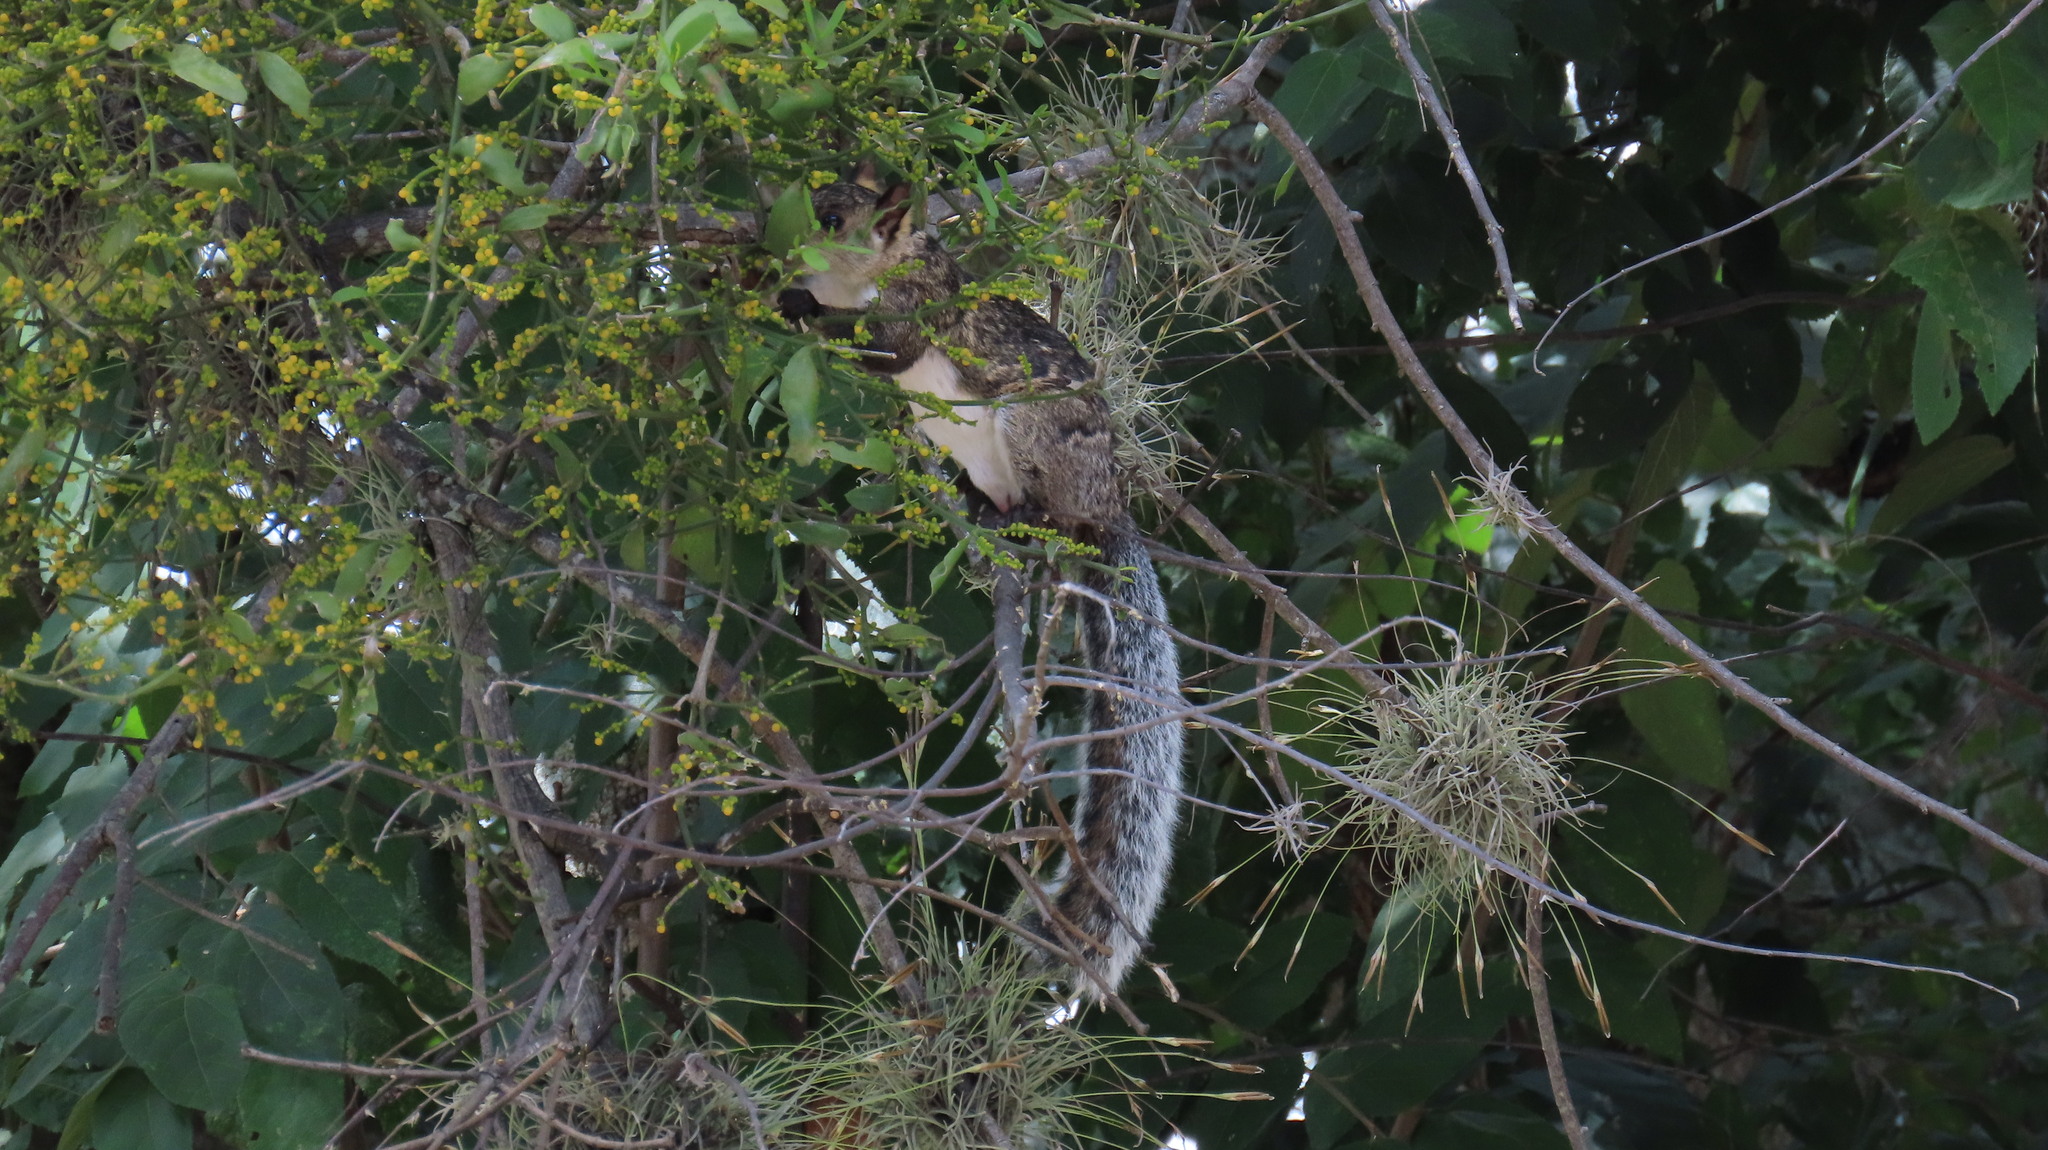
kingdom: Animalia
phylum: Chordata
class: Mammalia
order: Rodentia
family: Sciuridae
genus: Sciurus
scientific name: Sciurus variegatoides
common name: Variegated squirrel
